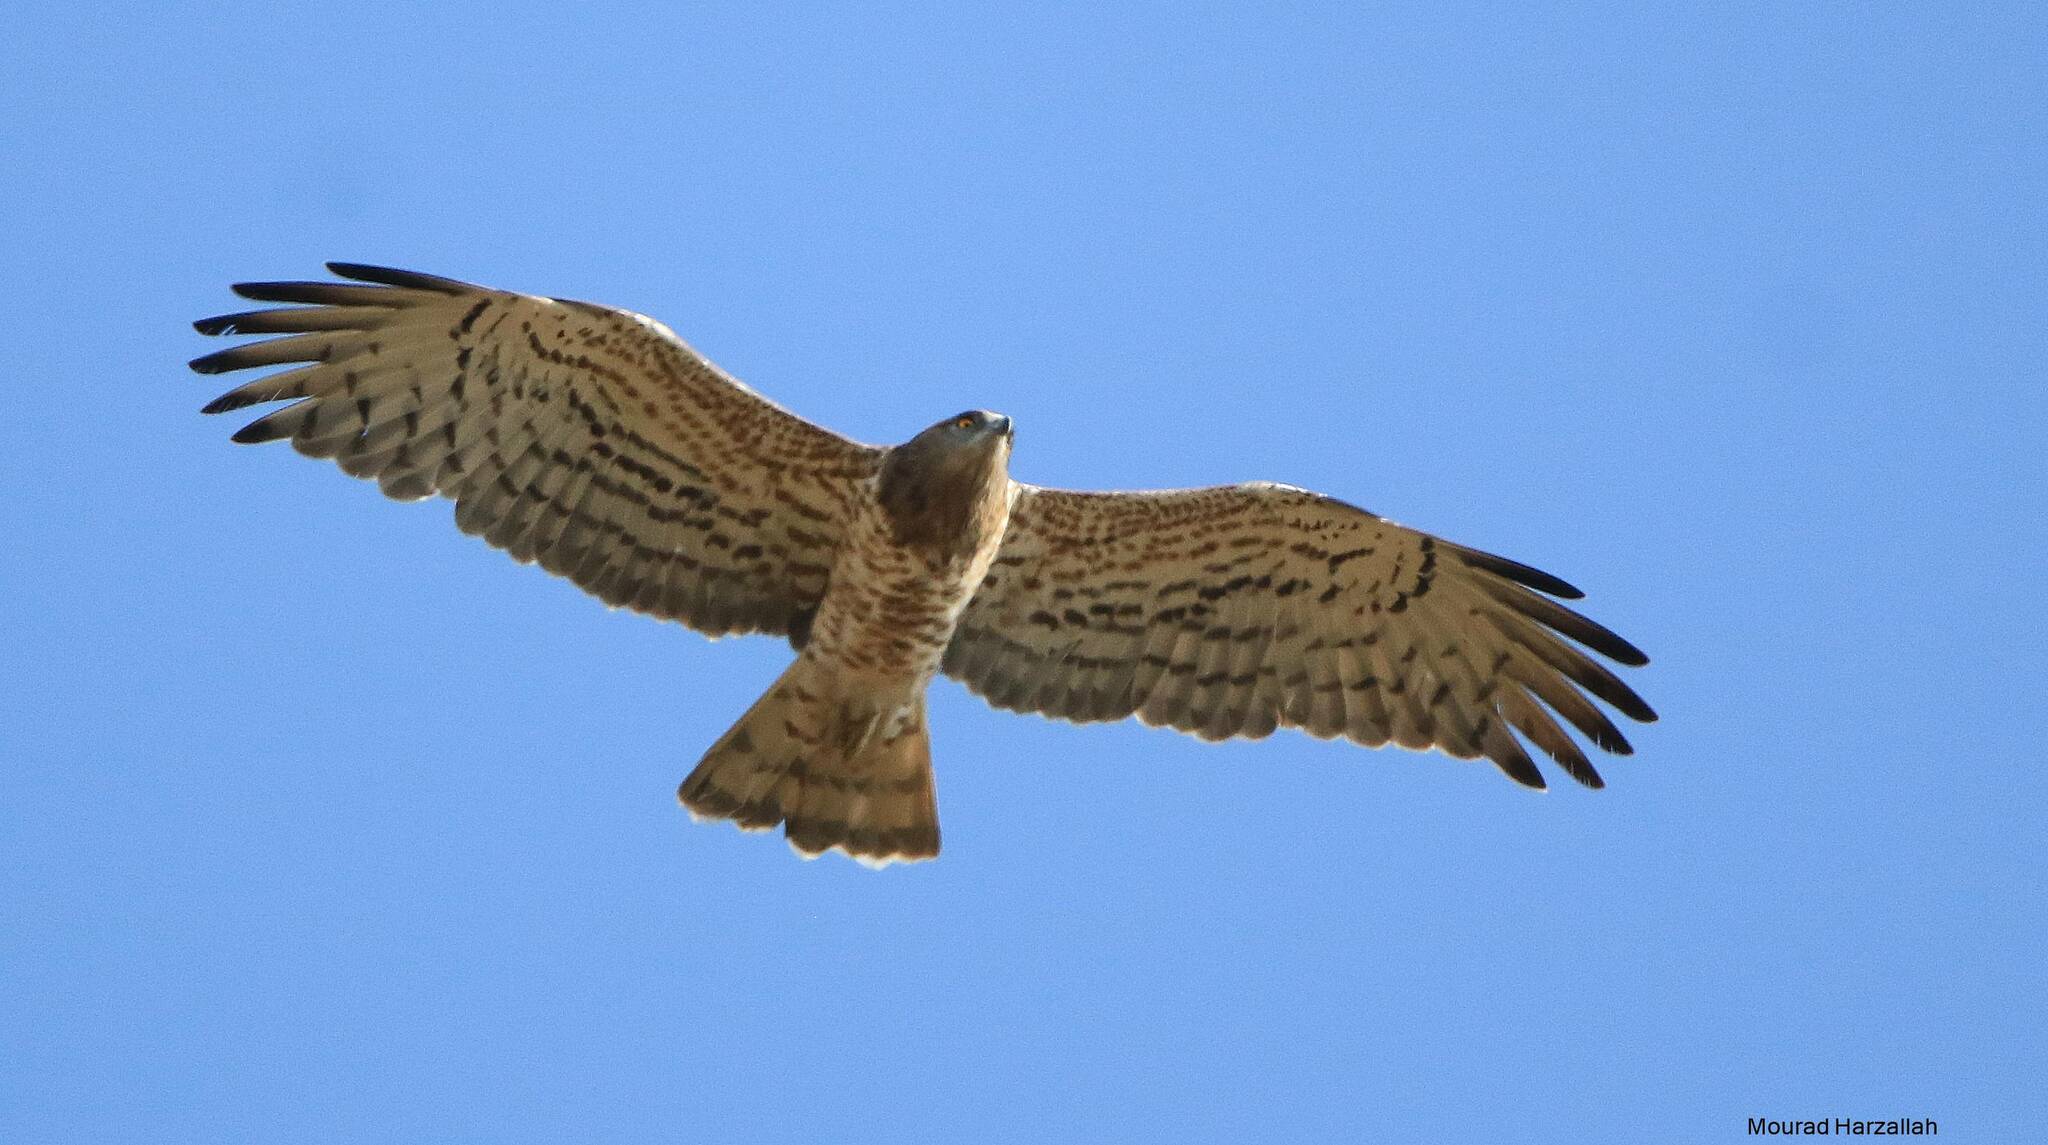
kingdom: Animalia
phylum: Chordata
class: Aves
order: Accipitriformes
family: Accipitridae
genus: Circaetus
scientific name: Circaetus gallicus
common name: Short-toed snake eagle
